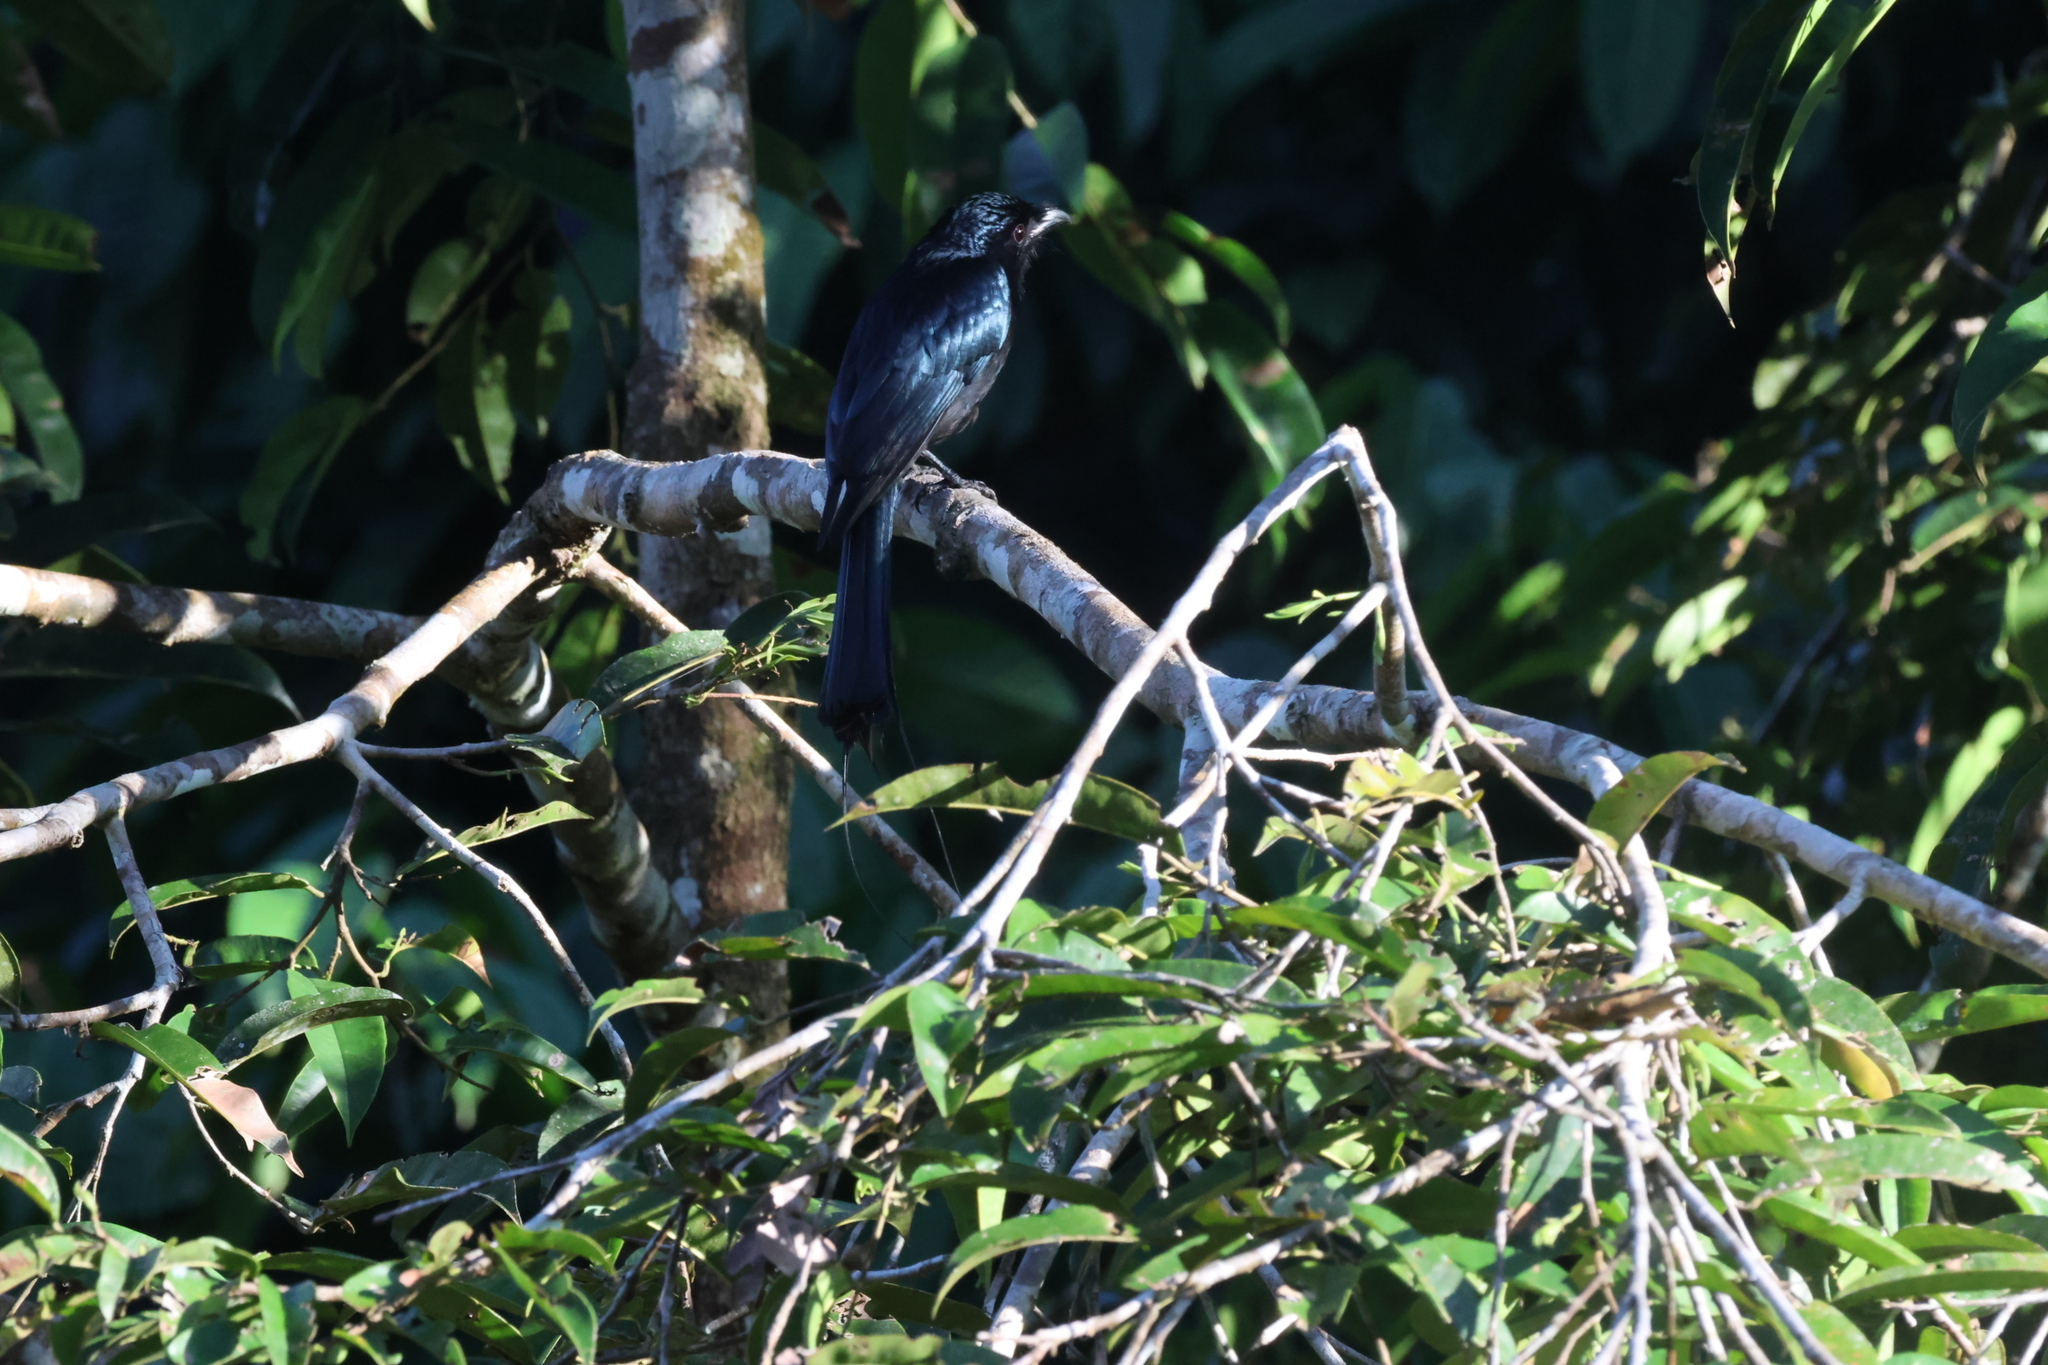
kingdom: Animalia
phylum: Chordata
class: Aves
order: Passeriformes
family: Dicruridae
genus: Dicrurus
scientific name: Dicrurus paradiseus
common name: Greater racket-tailed drongo
